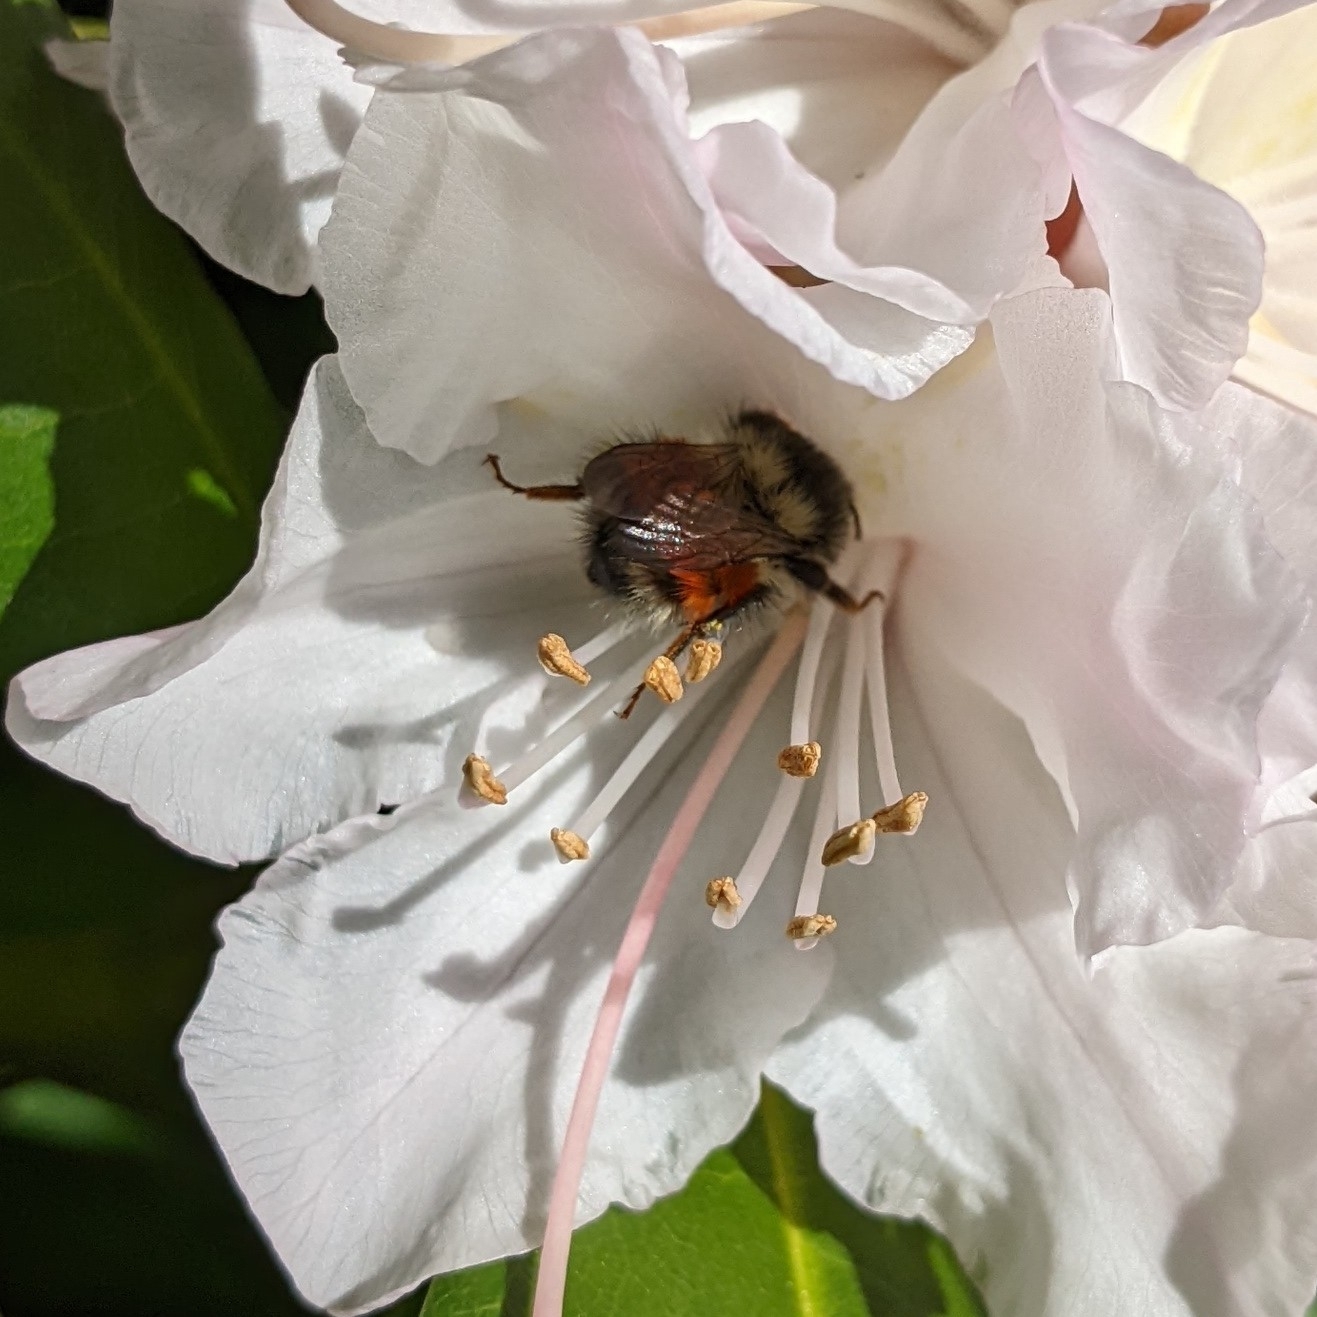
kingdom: Animalia
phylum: Arthropoda
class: Insecta
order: Hymenoptera
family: Apidae
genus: Bombus
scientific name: Bombus vancouverensis
